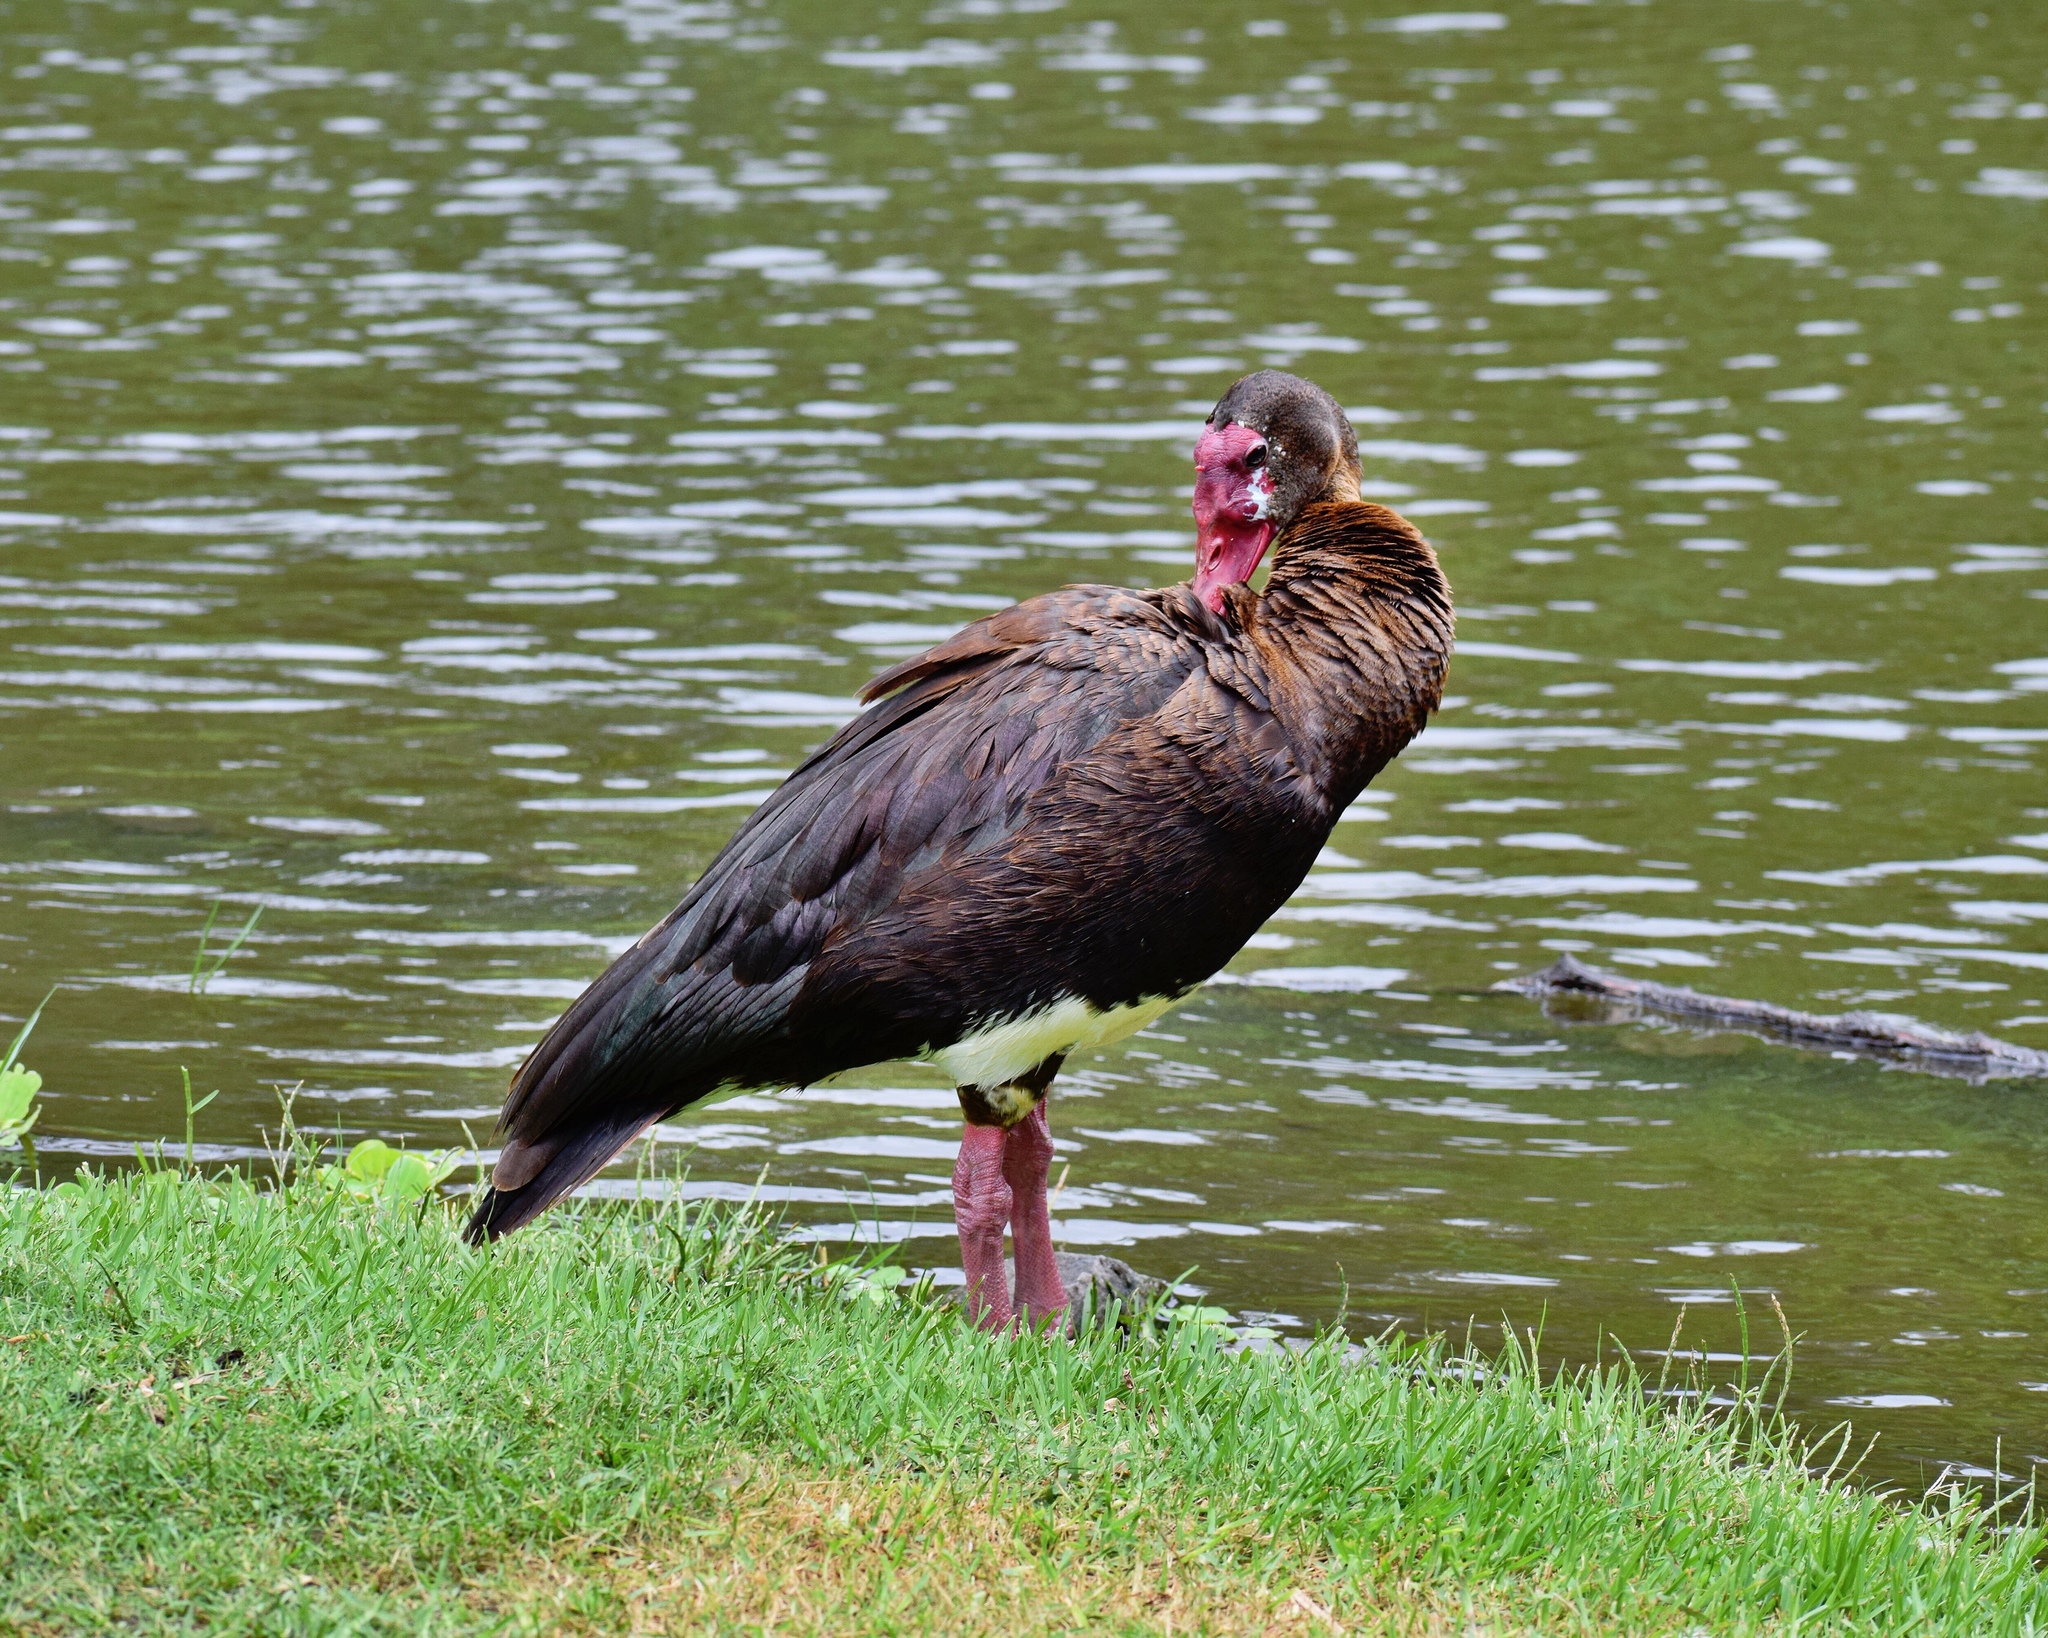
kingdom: Animalia
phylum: Chordata
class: Aves
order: Anseriformes
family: Anatidae
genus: Plectropterus
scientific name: Plectropterus gambensis
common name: Spur-winged goose
